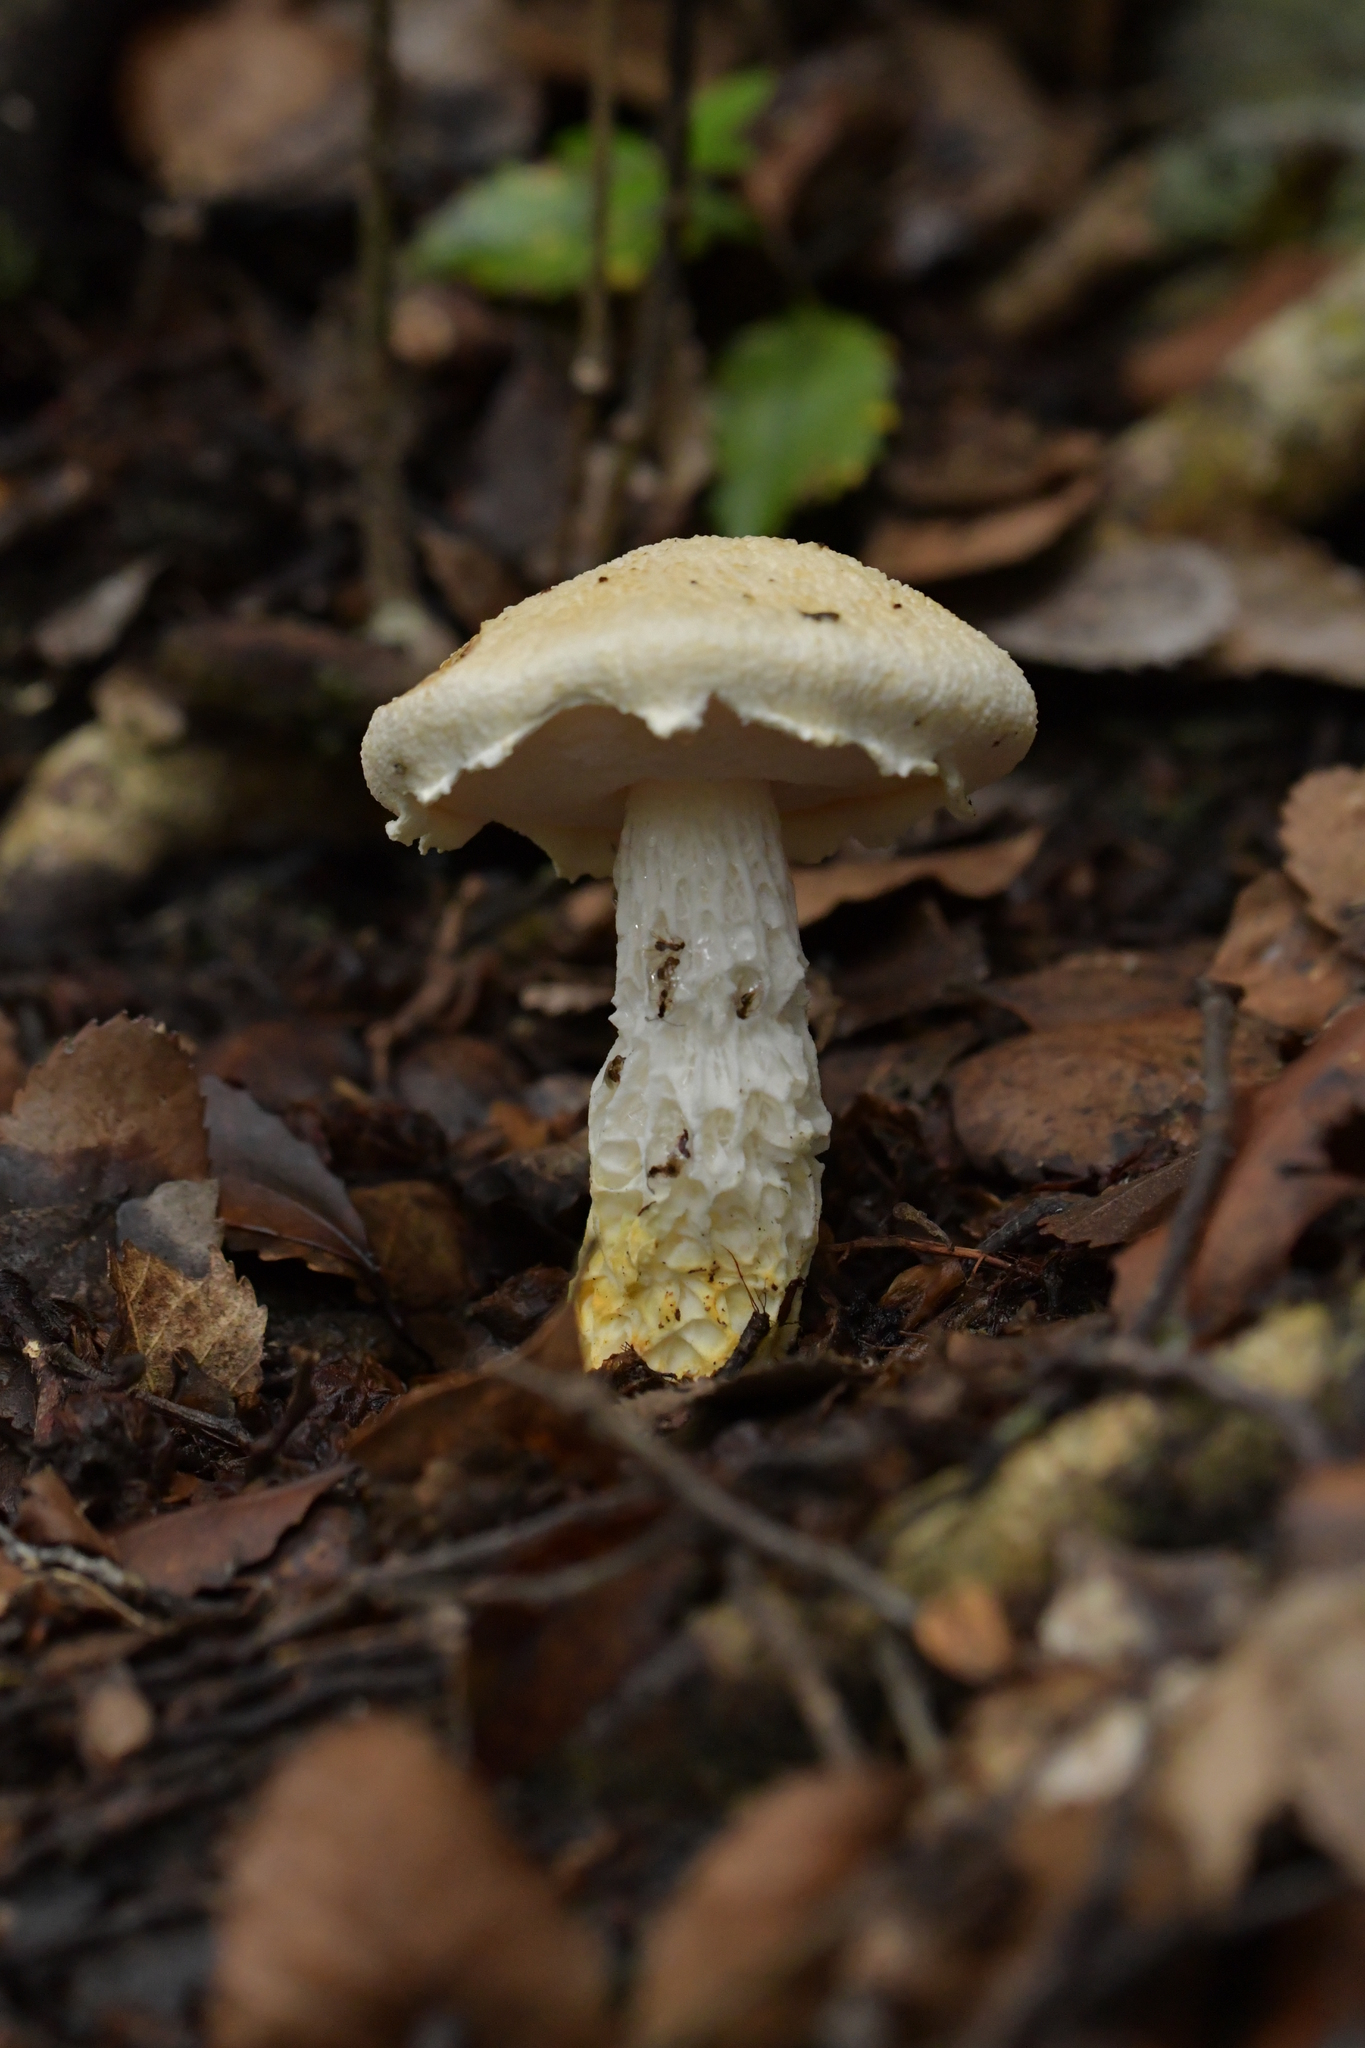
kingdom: Fungi
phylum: Basidiomycota
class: Agaricomycetes
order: Boletales
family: Boletaceae
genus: Fistulinella
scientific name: Fistulinella nivea
